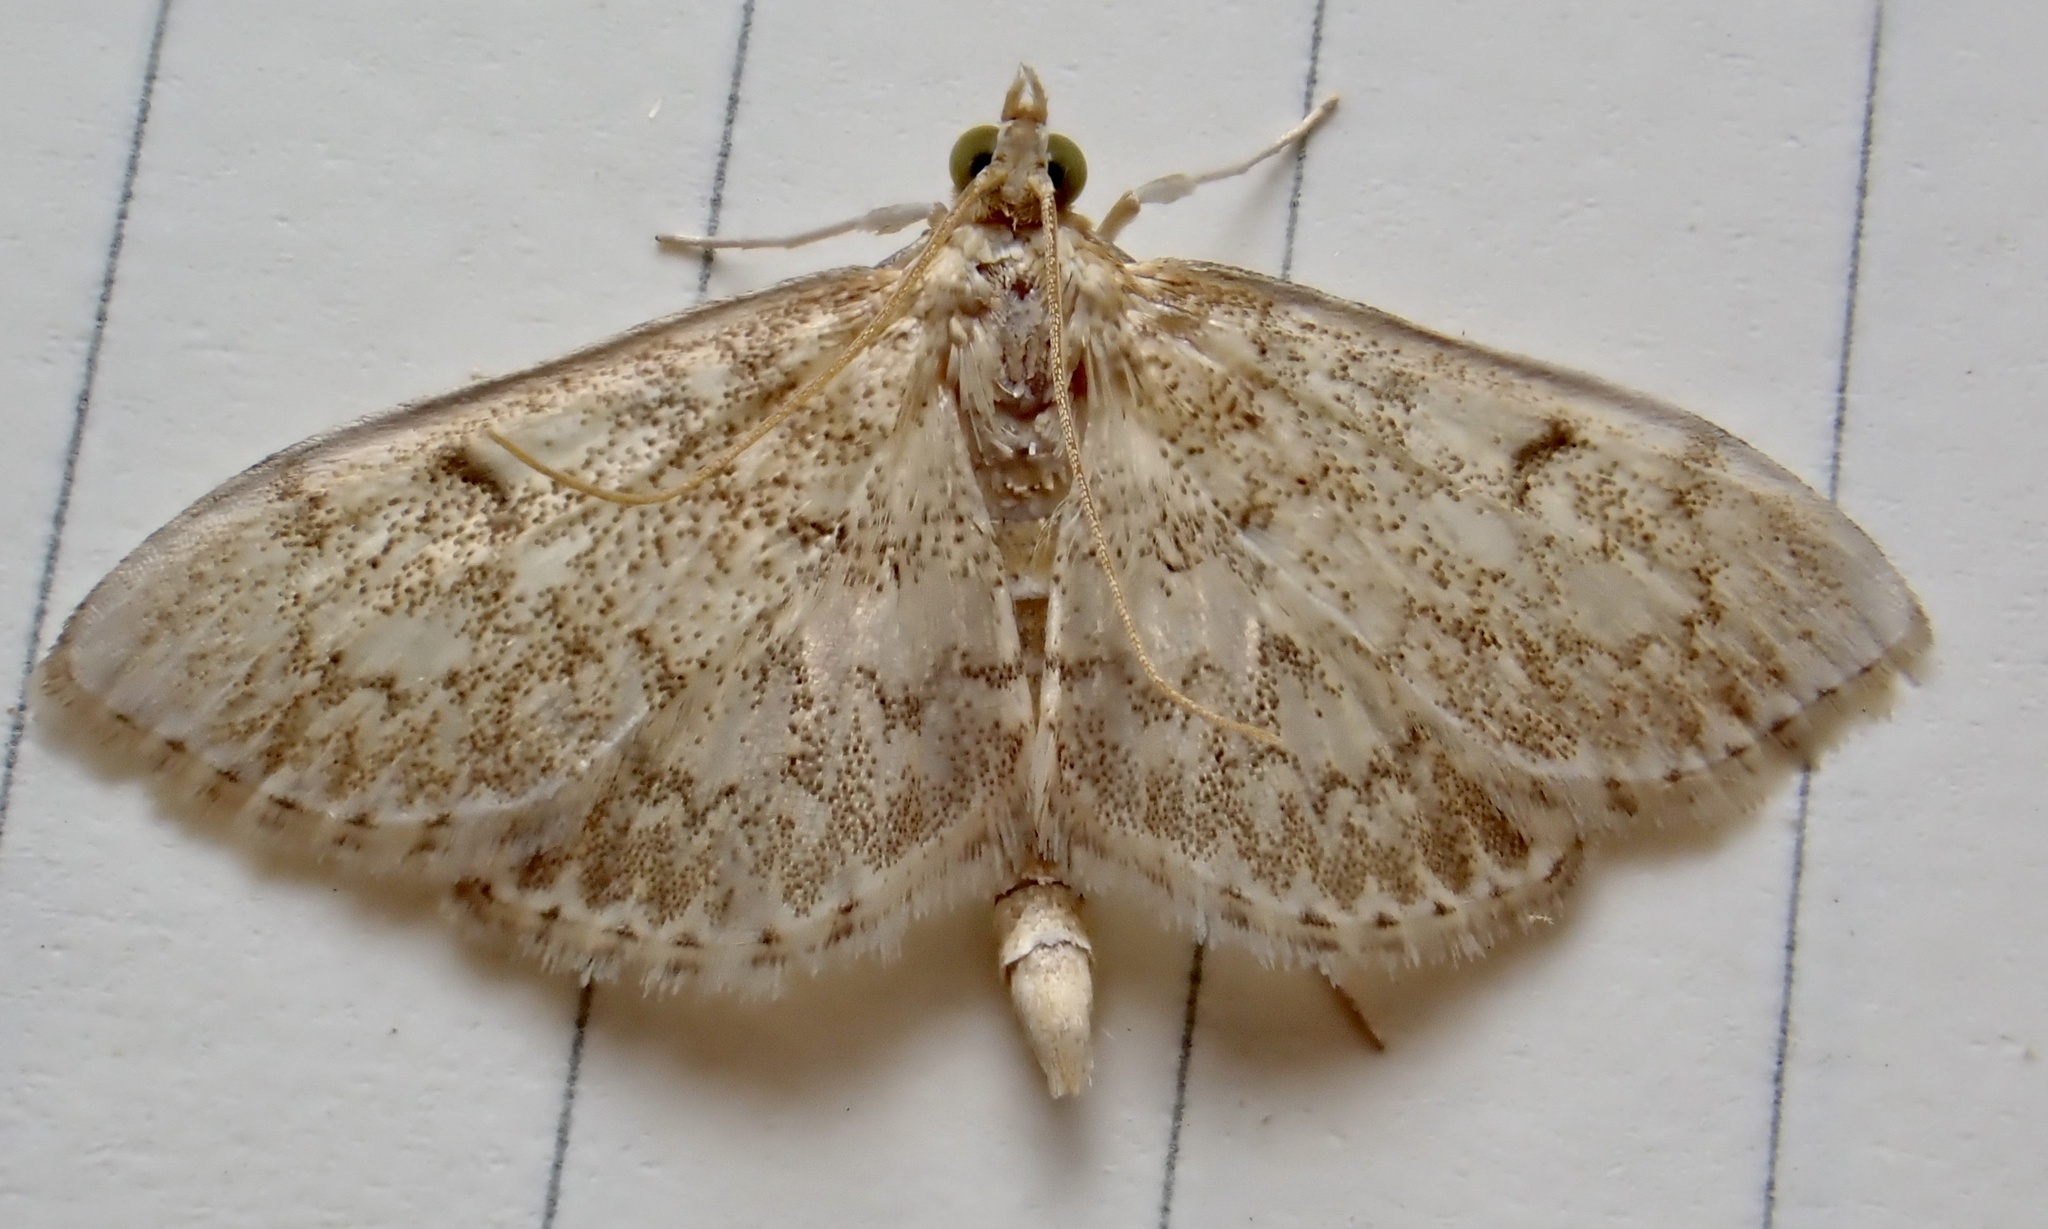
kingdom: Animalia
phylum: Arthropoda
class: Insecta
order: Lepidoptera
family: Crambidae
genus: Anania
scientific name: Anania quebecensis
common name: Quebec anania moth
